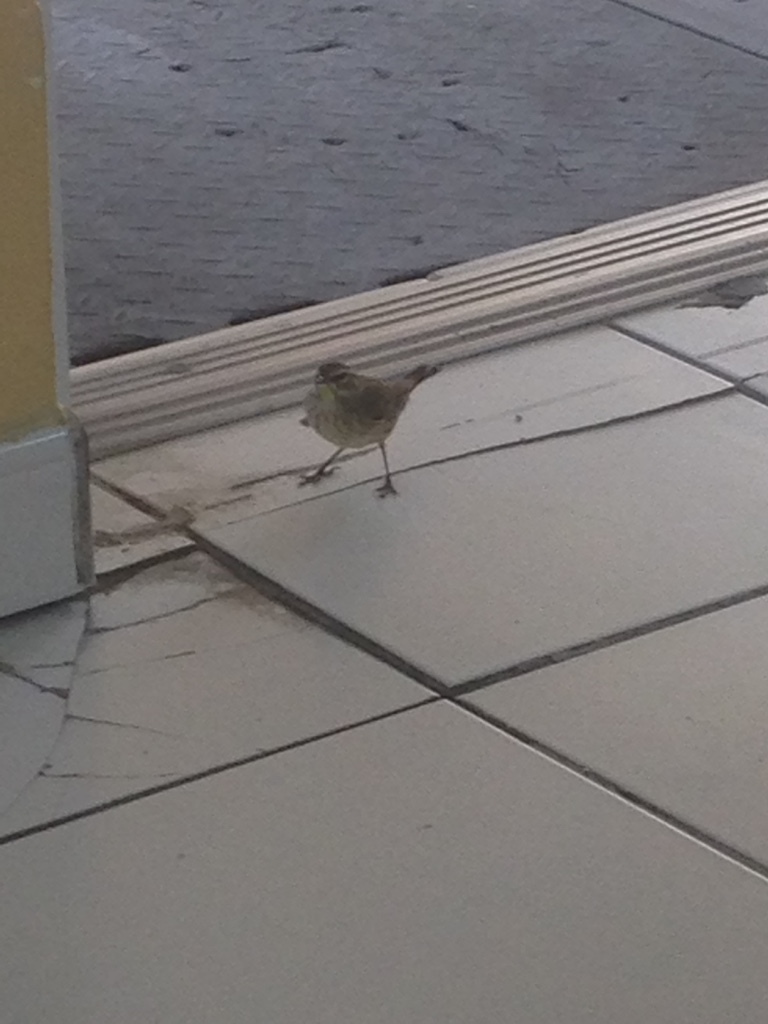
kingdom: Animalia
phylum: Chordata
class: Aves
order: Passeriformes
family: Parulidae
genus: Setophaga
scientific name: Setophaga palmarum
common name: Palm warbler
